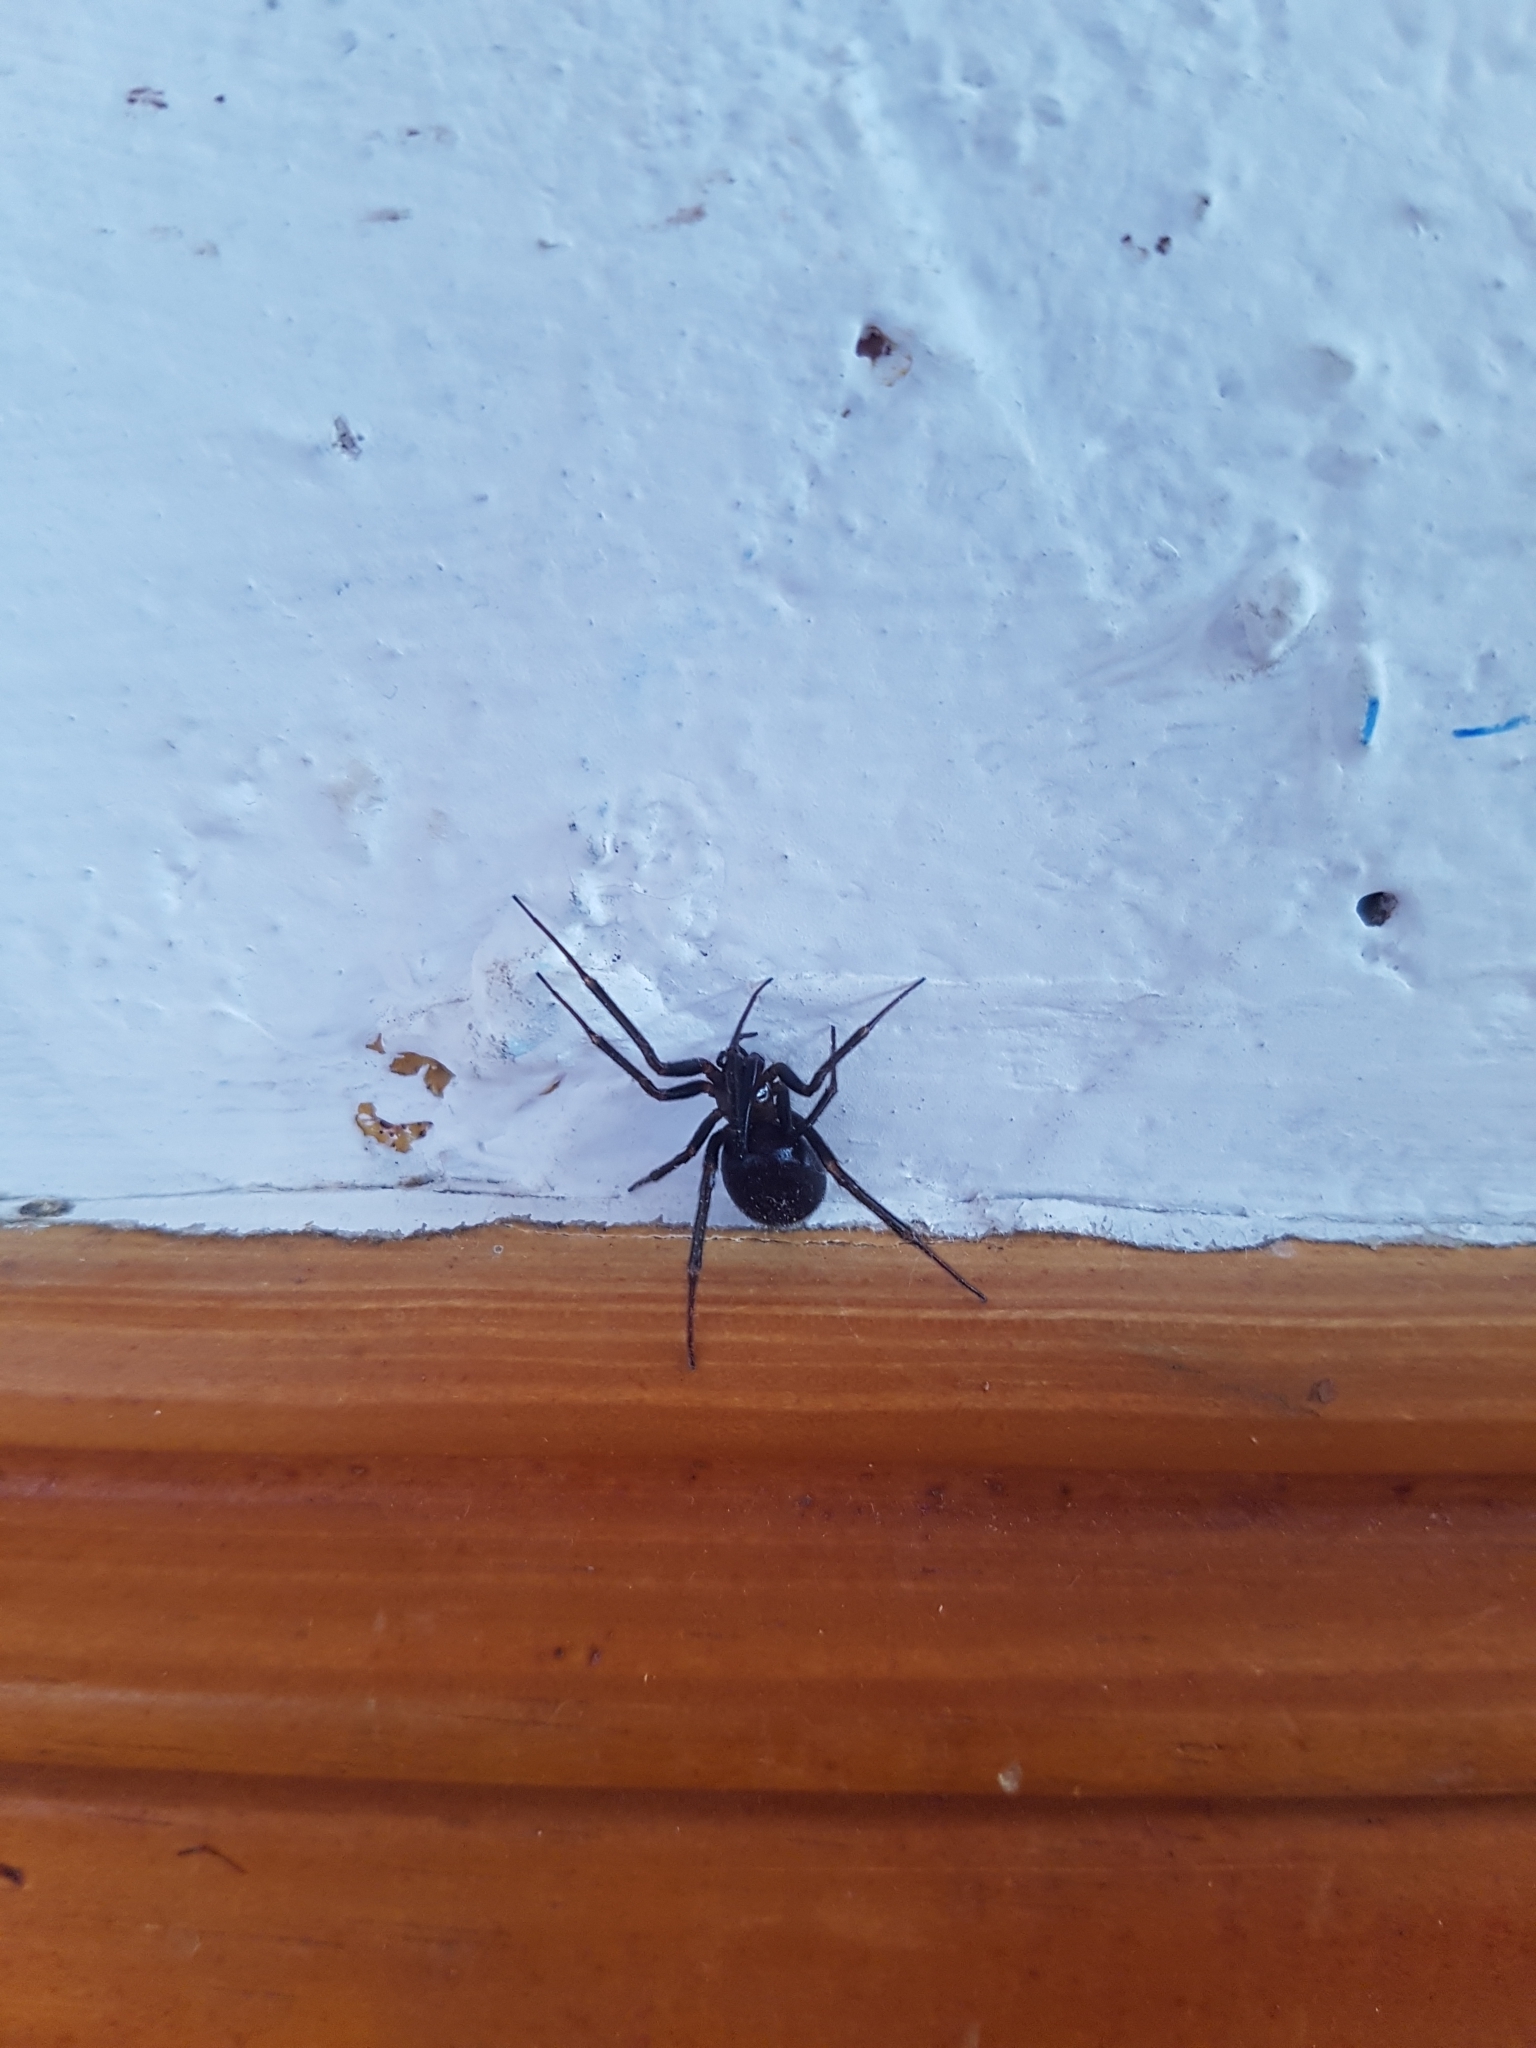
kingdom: Animalia
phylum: Arthropoda
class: Arachnida
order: Araneae
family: Theridiidae
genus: Steatoda
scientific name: Steatoda grossa
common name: False black widow
